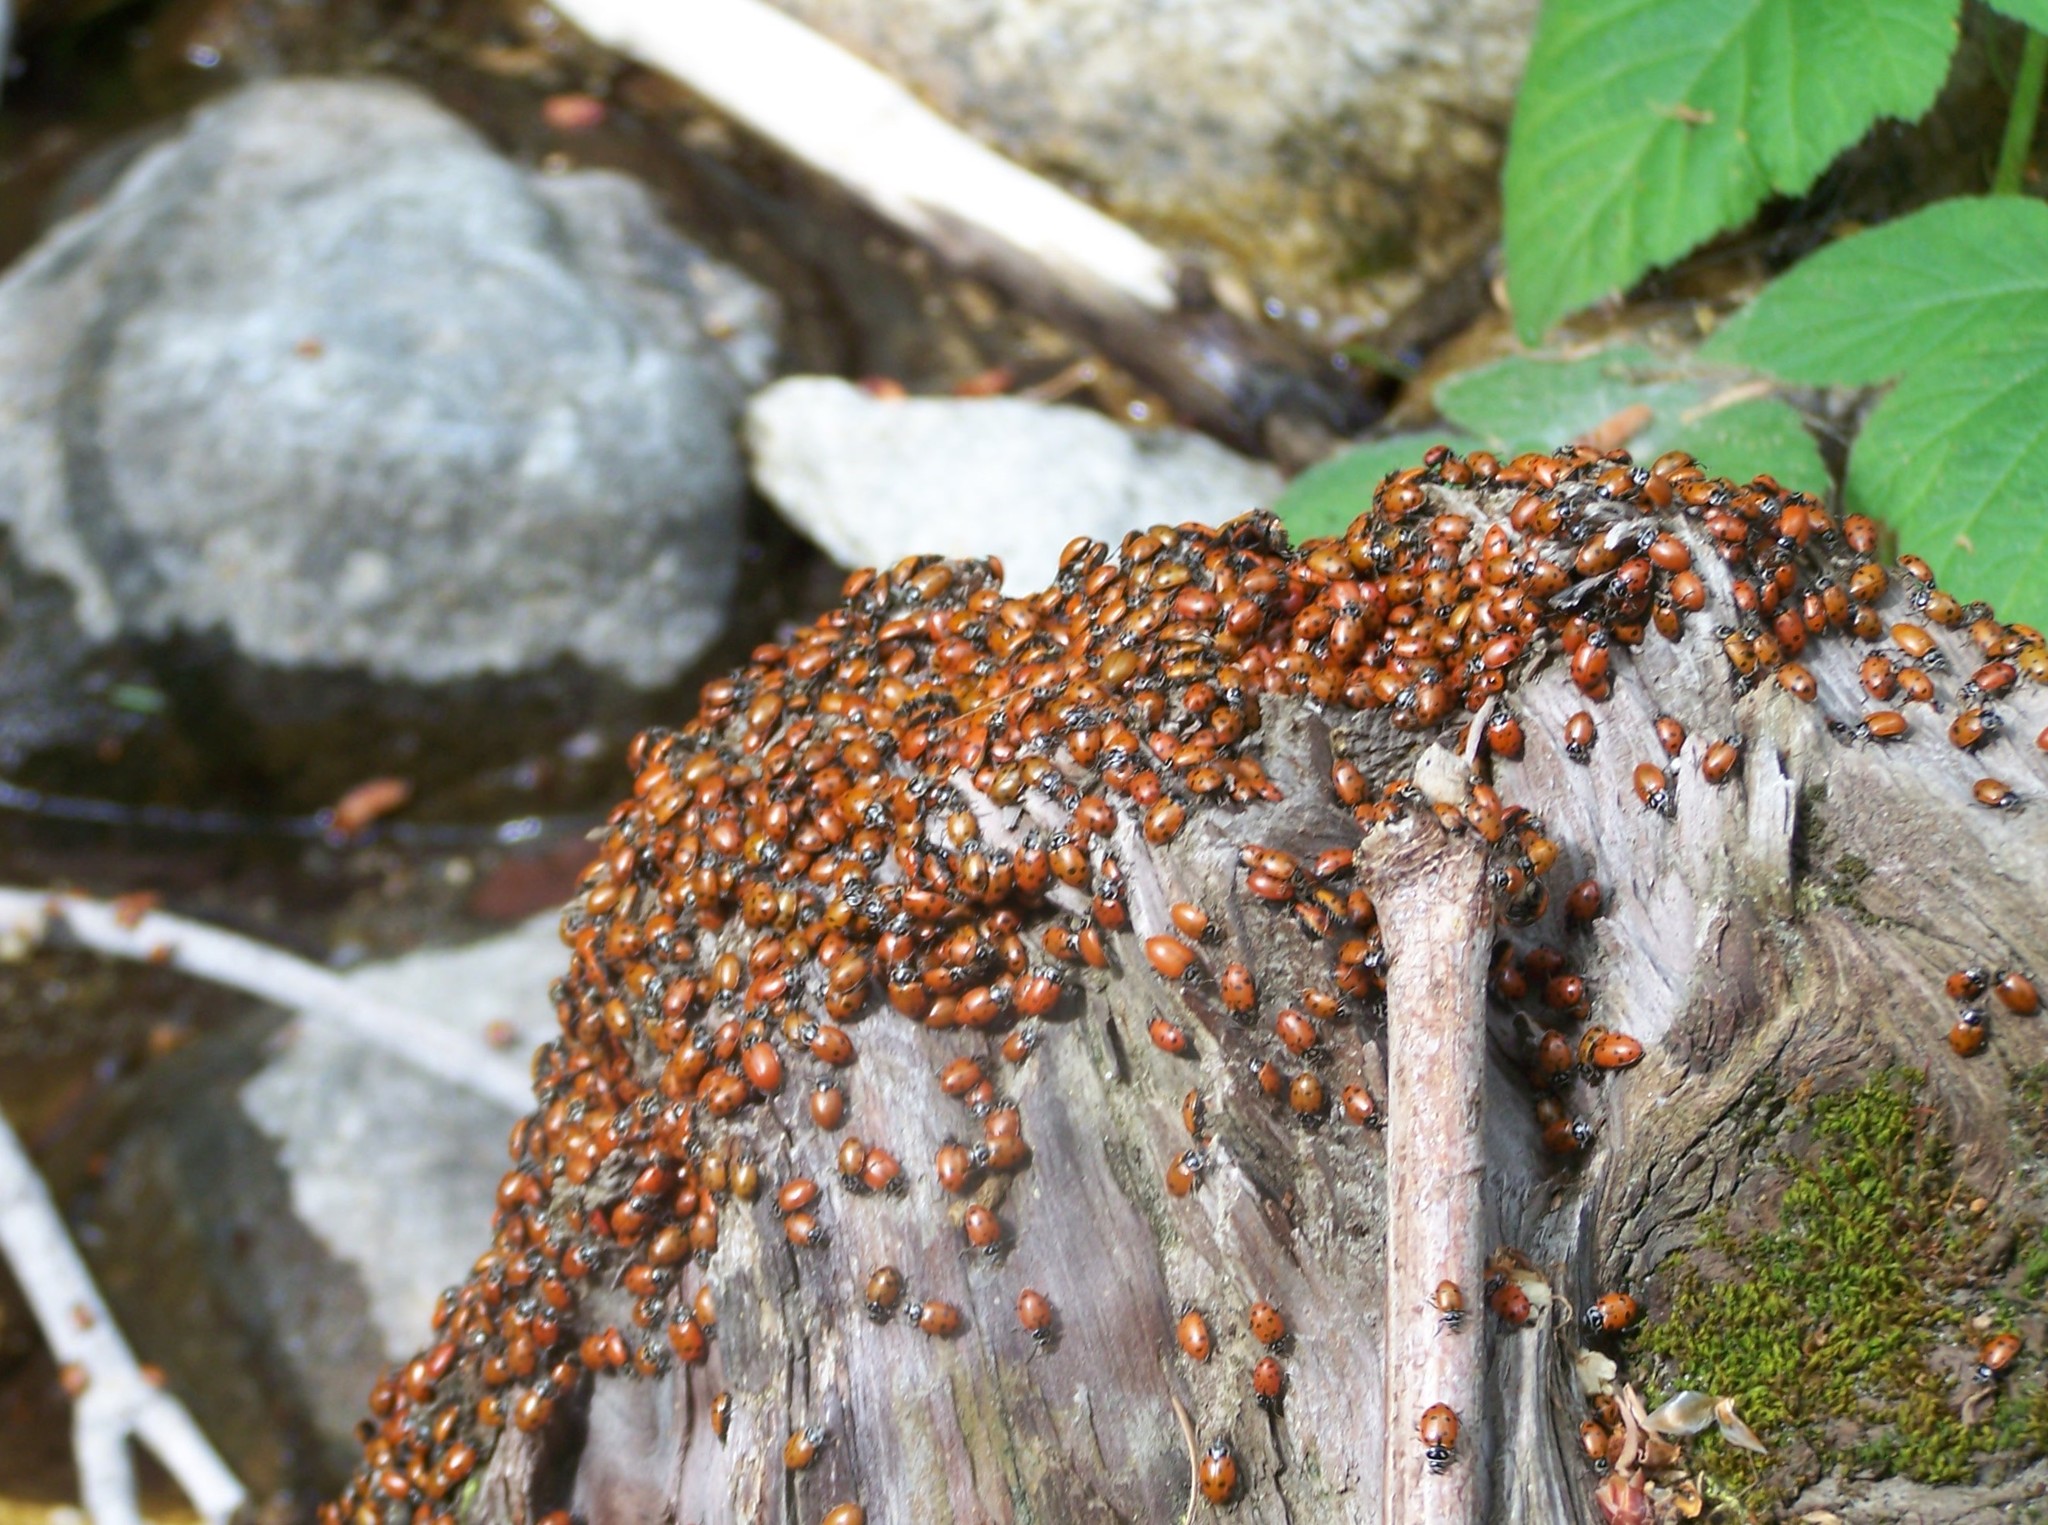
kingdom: Animalia
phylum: Arthropoda
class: Insecta
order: Coleoptera
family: Coccinellidae
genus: Hippodamia
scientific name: Hippodamia convergens
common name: Convergent lady beetle
